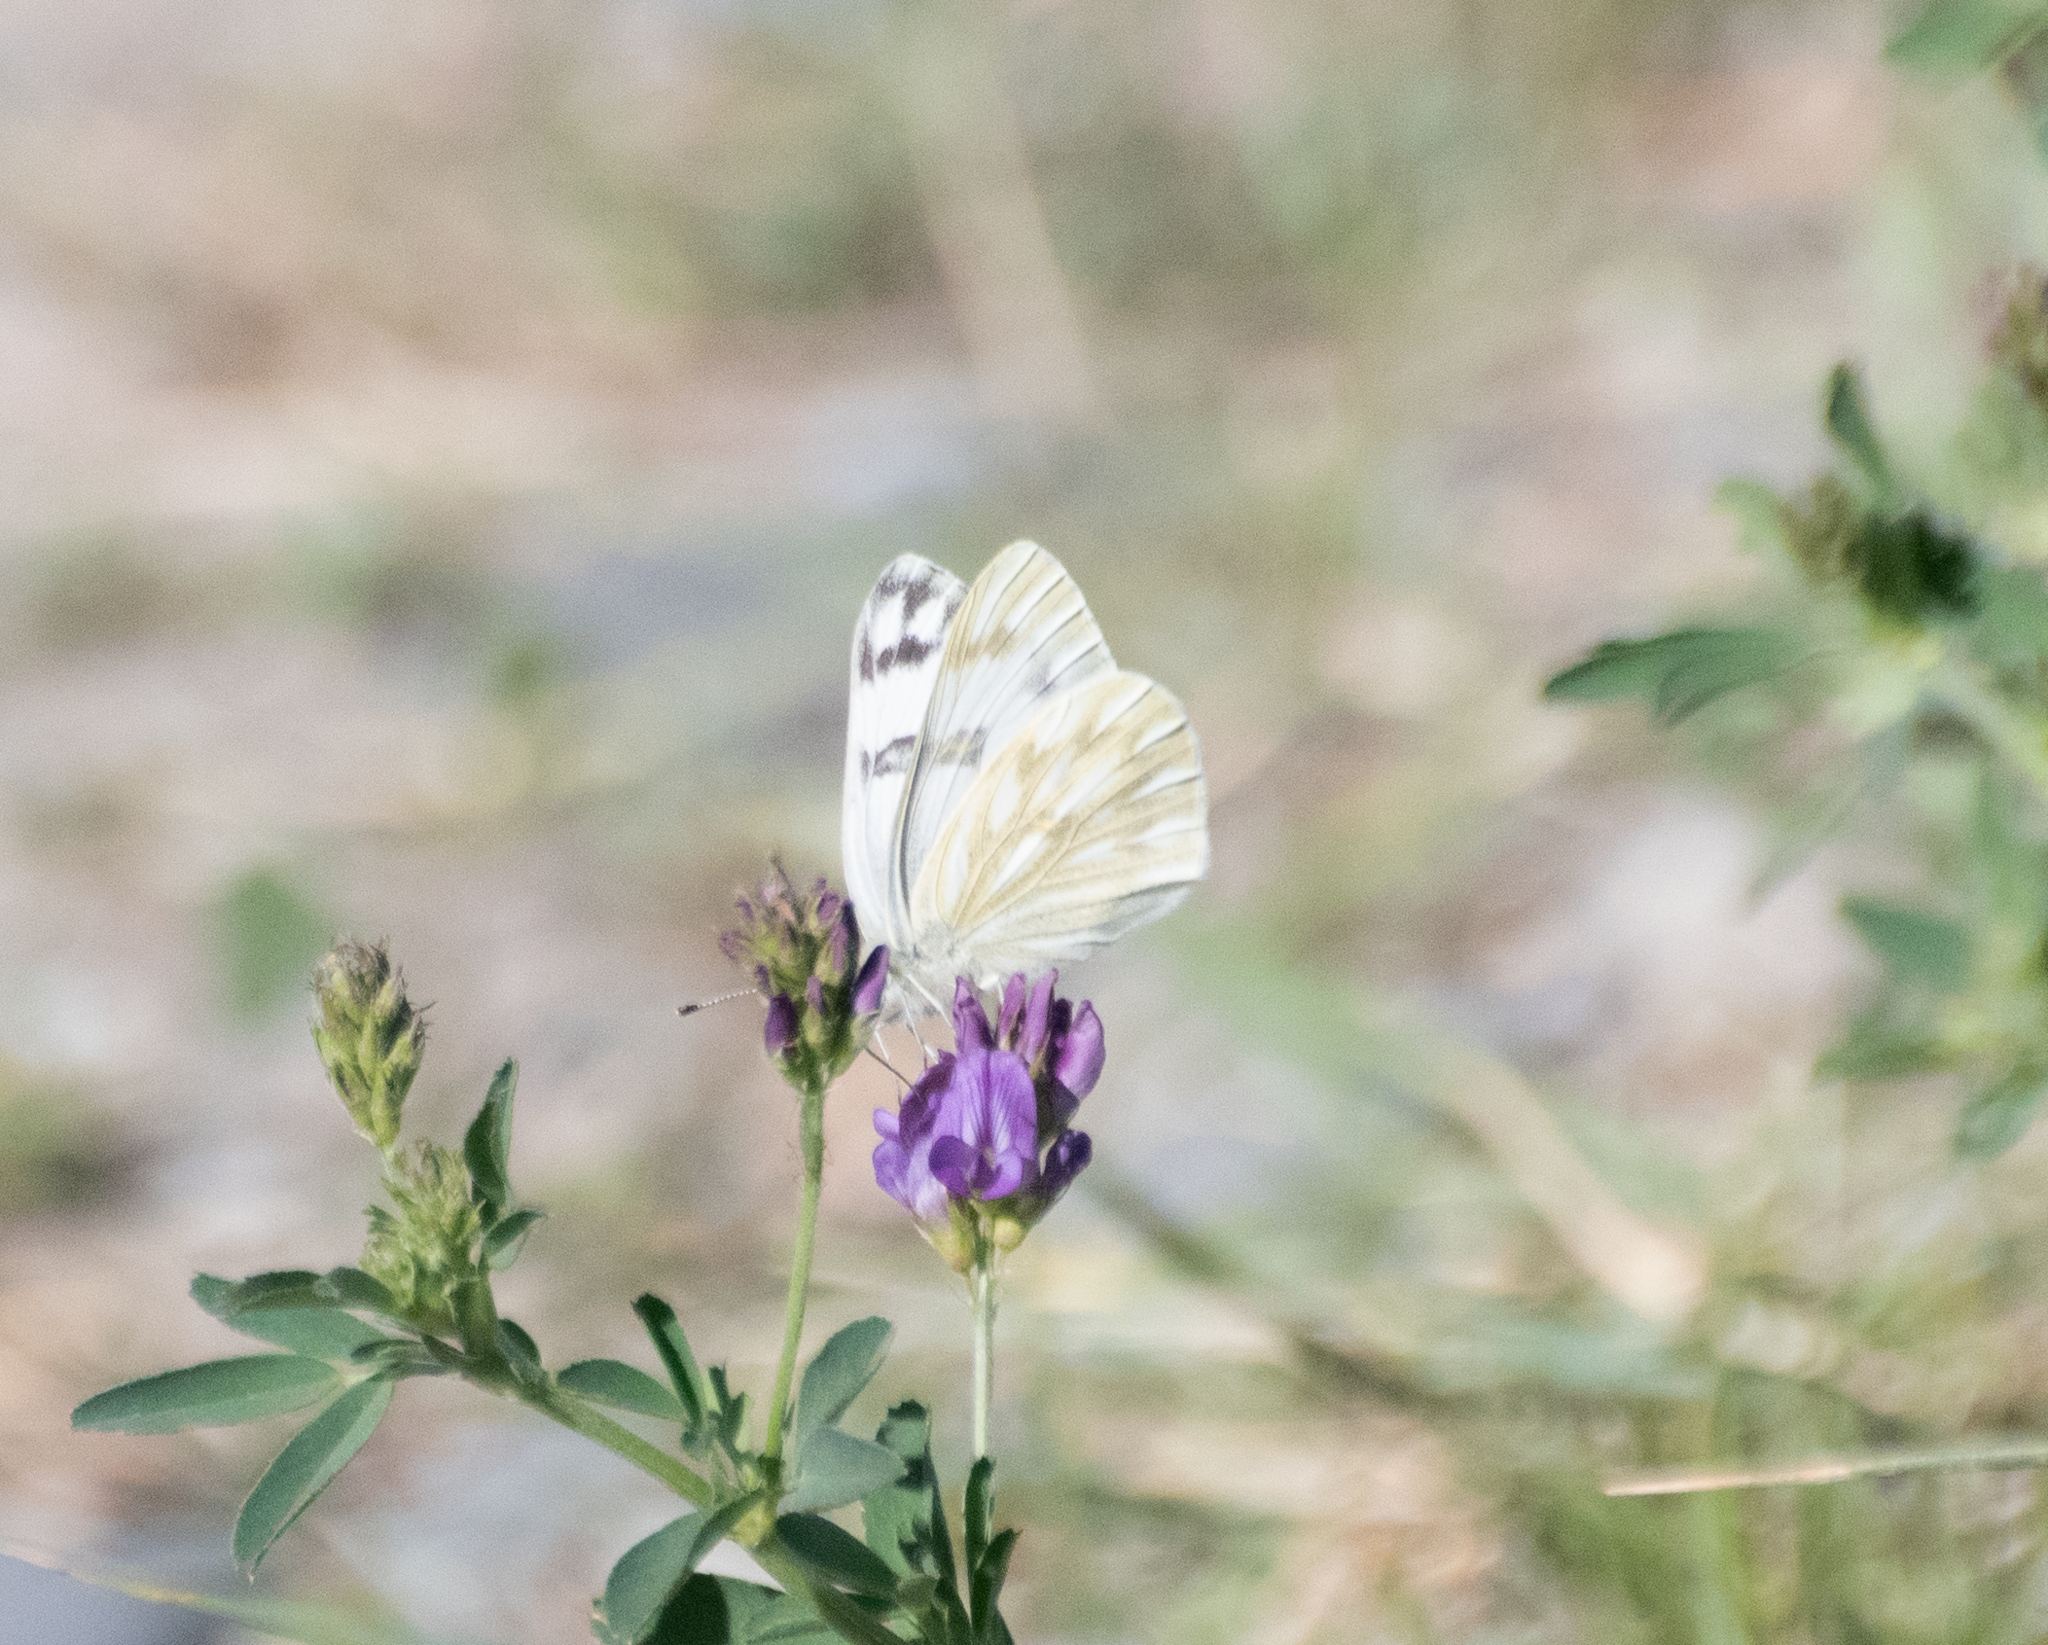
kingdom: Animalia
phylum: Arthropoda
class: Insecta
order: Lepidoptera
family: Pieridae
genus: Pontia
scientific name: Pontia occidentalis
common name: Western white
